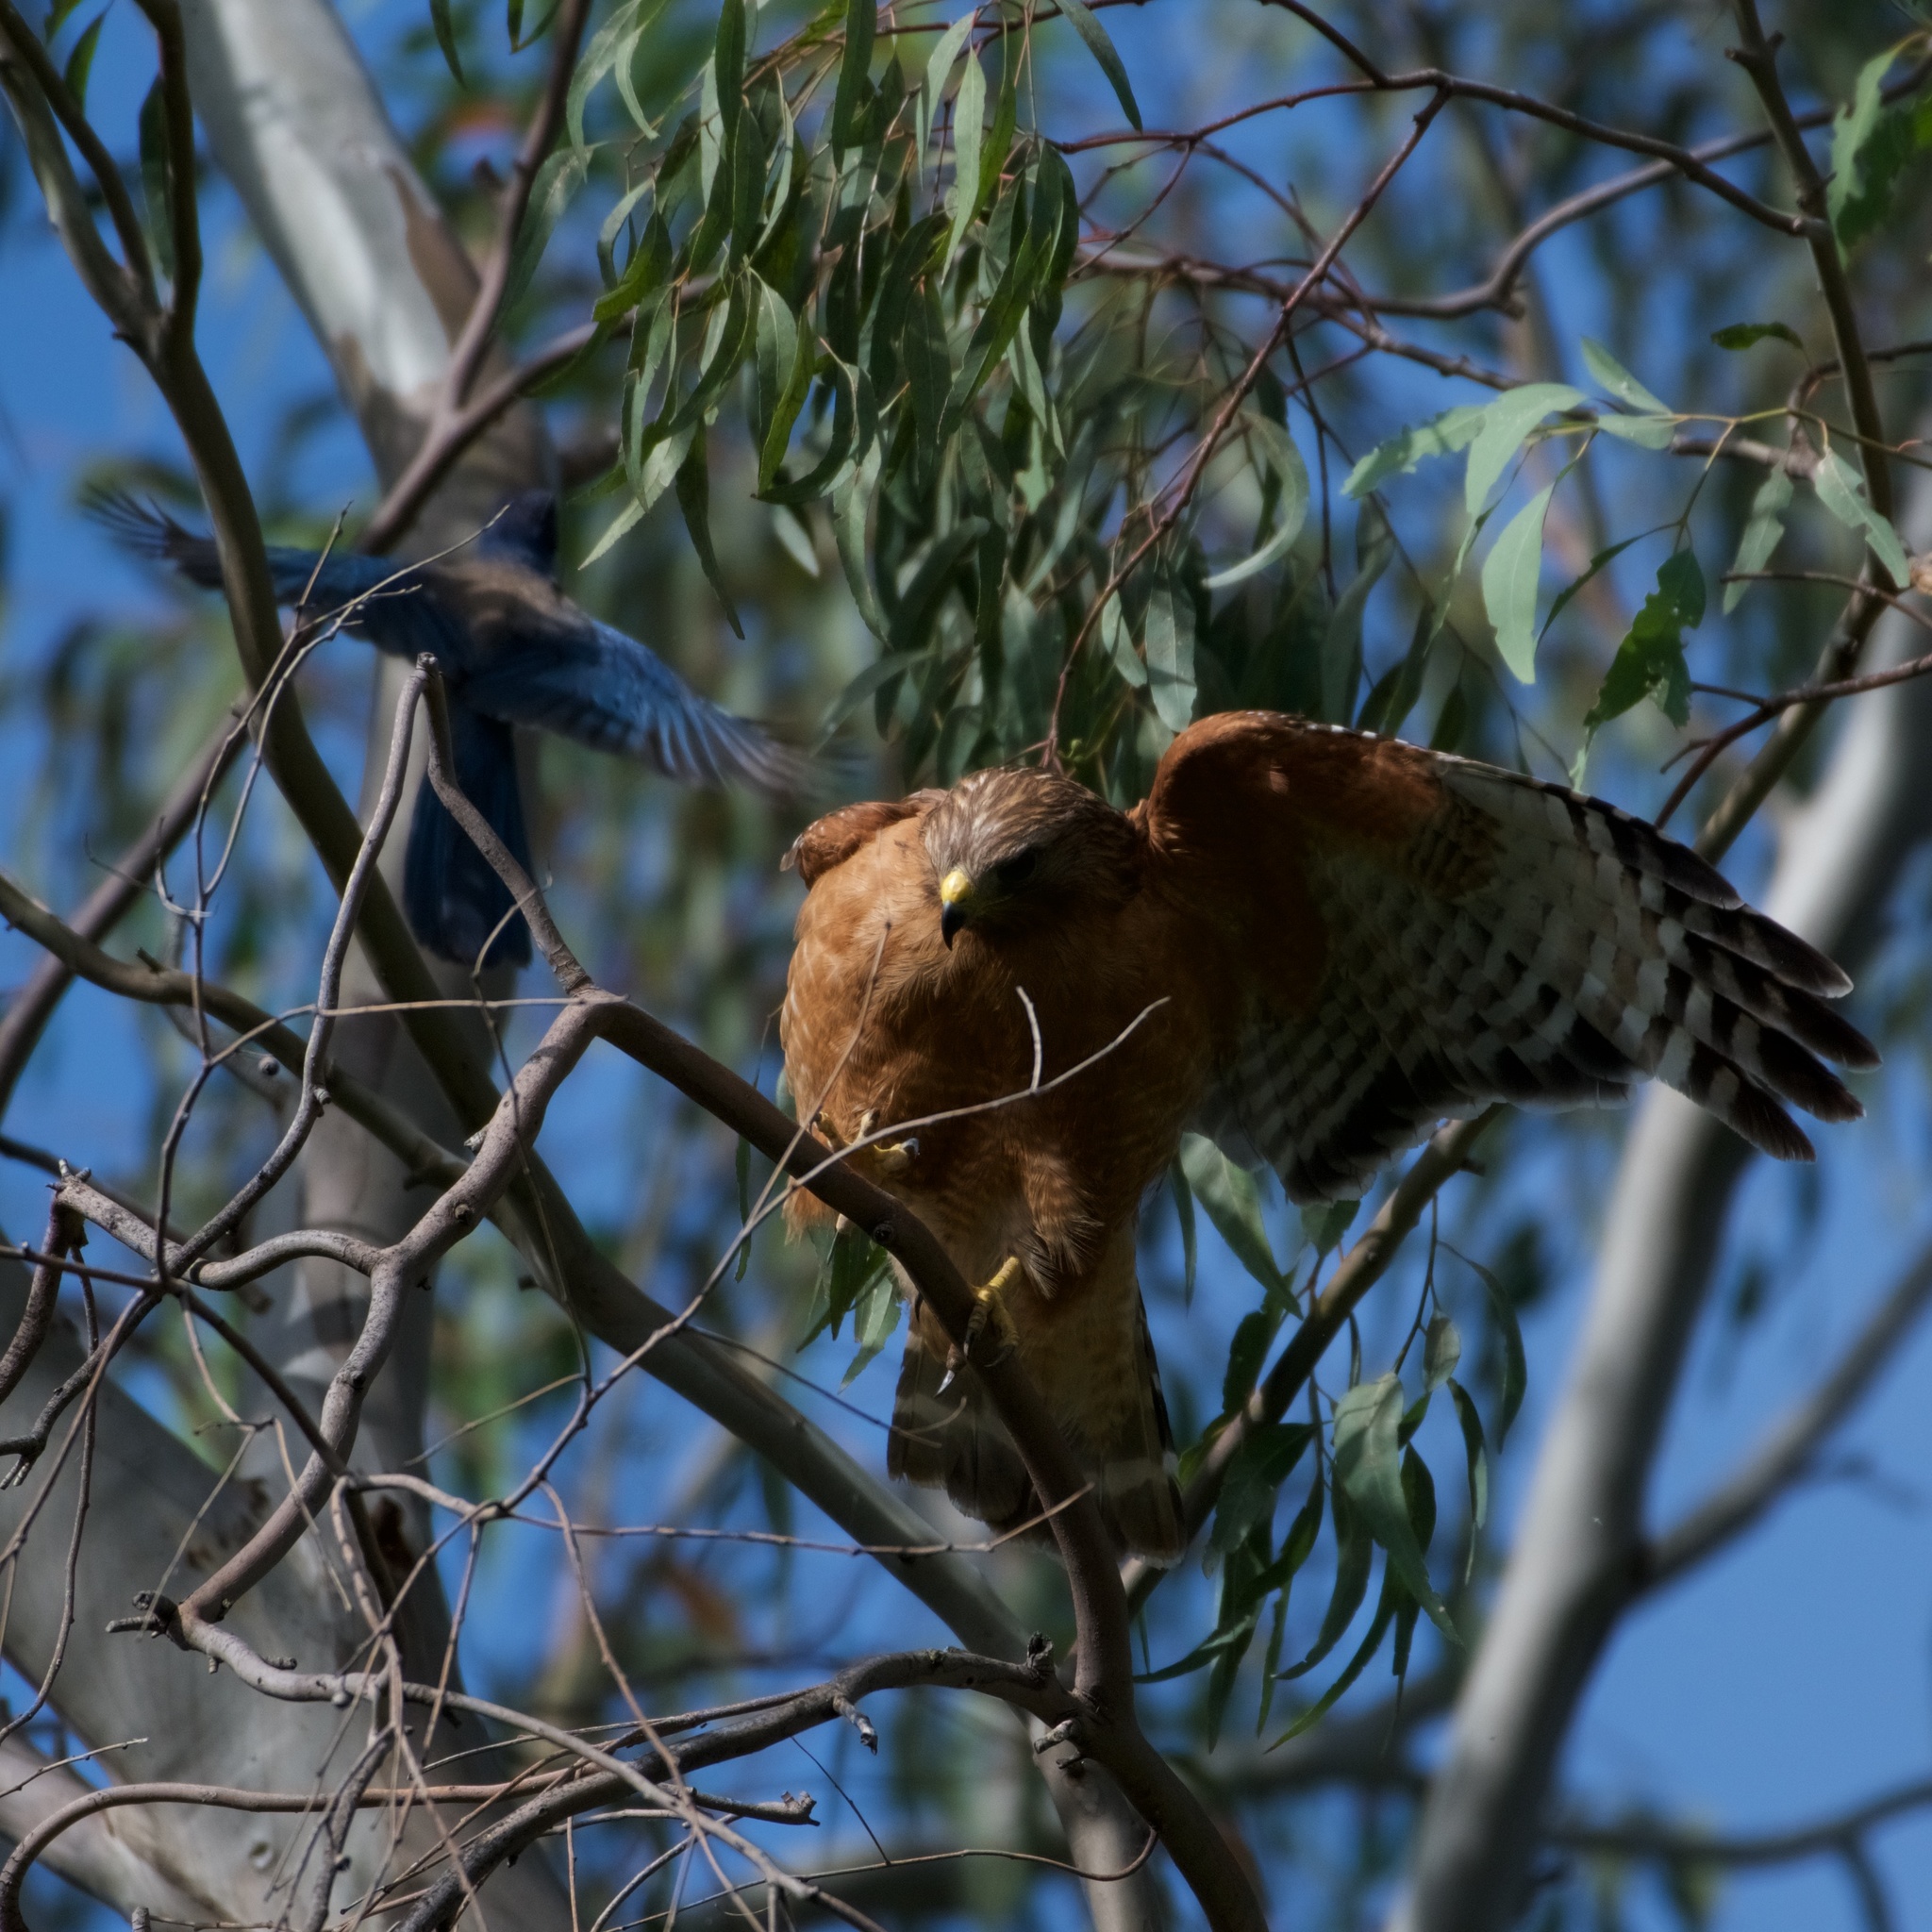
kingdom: Animalia
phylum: Chordata
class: Aves
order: Accipitriformes
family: Accipitridae
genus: Buteo
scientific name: Buteo lineatus
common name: Red-shouldered hawk
